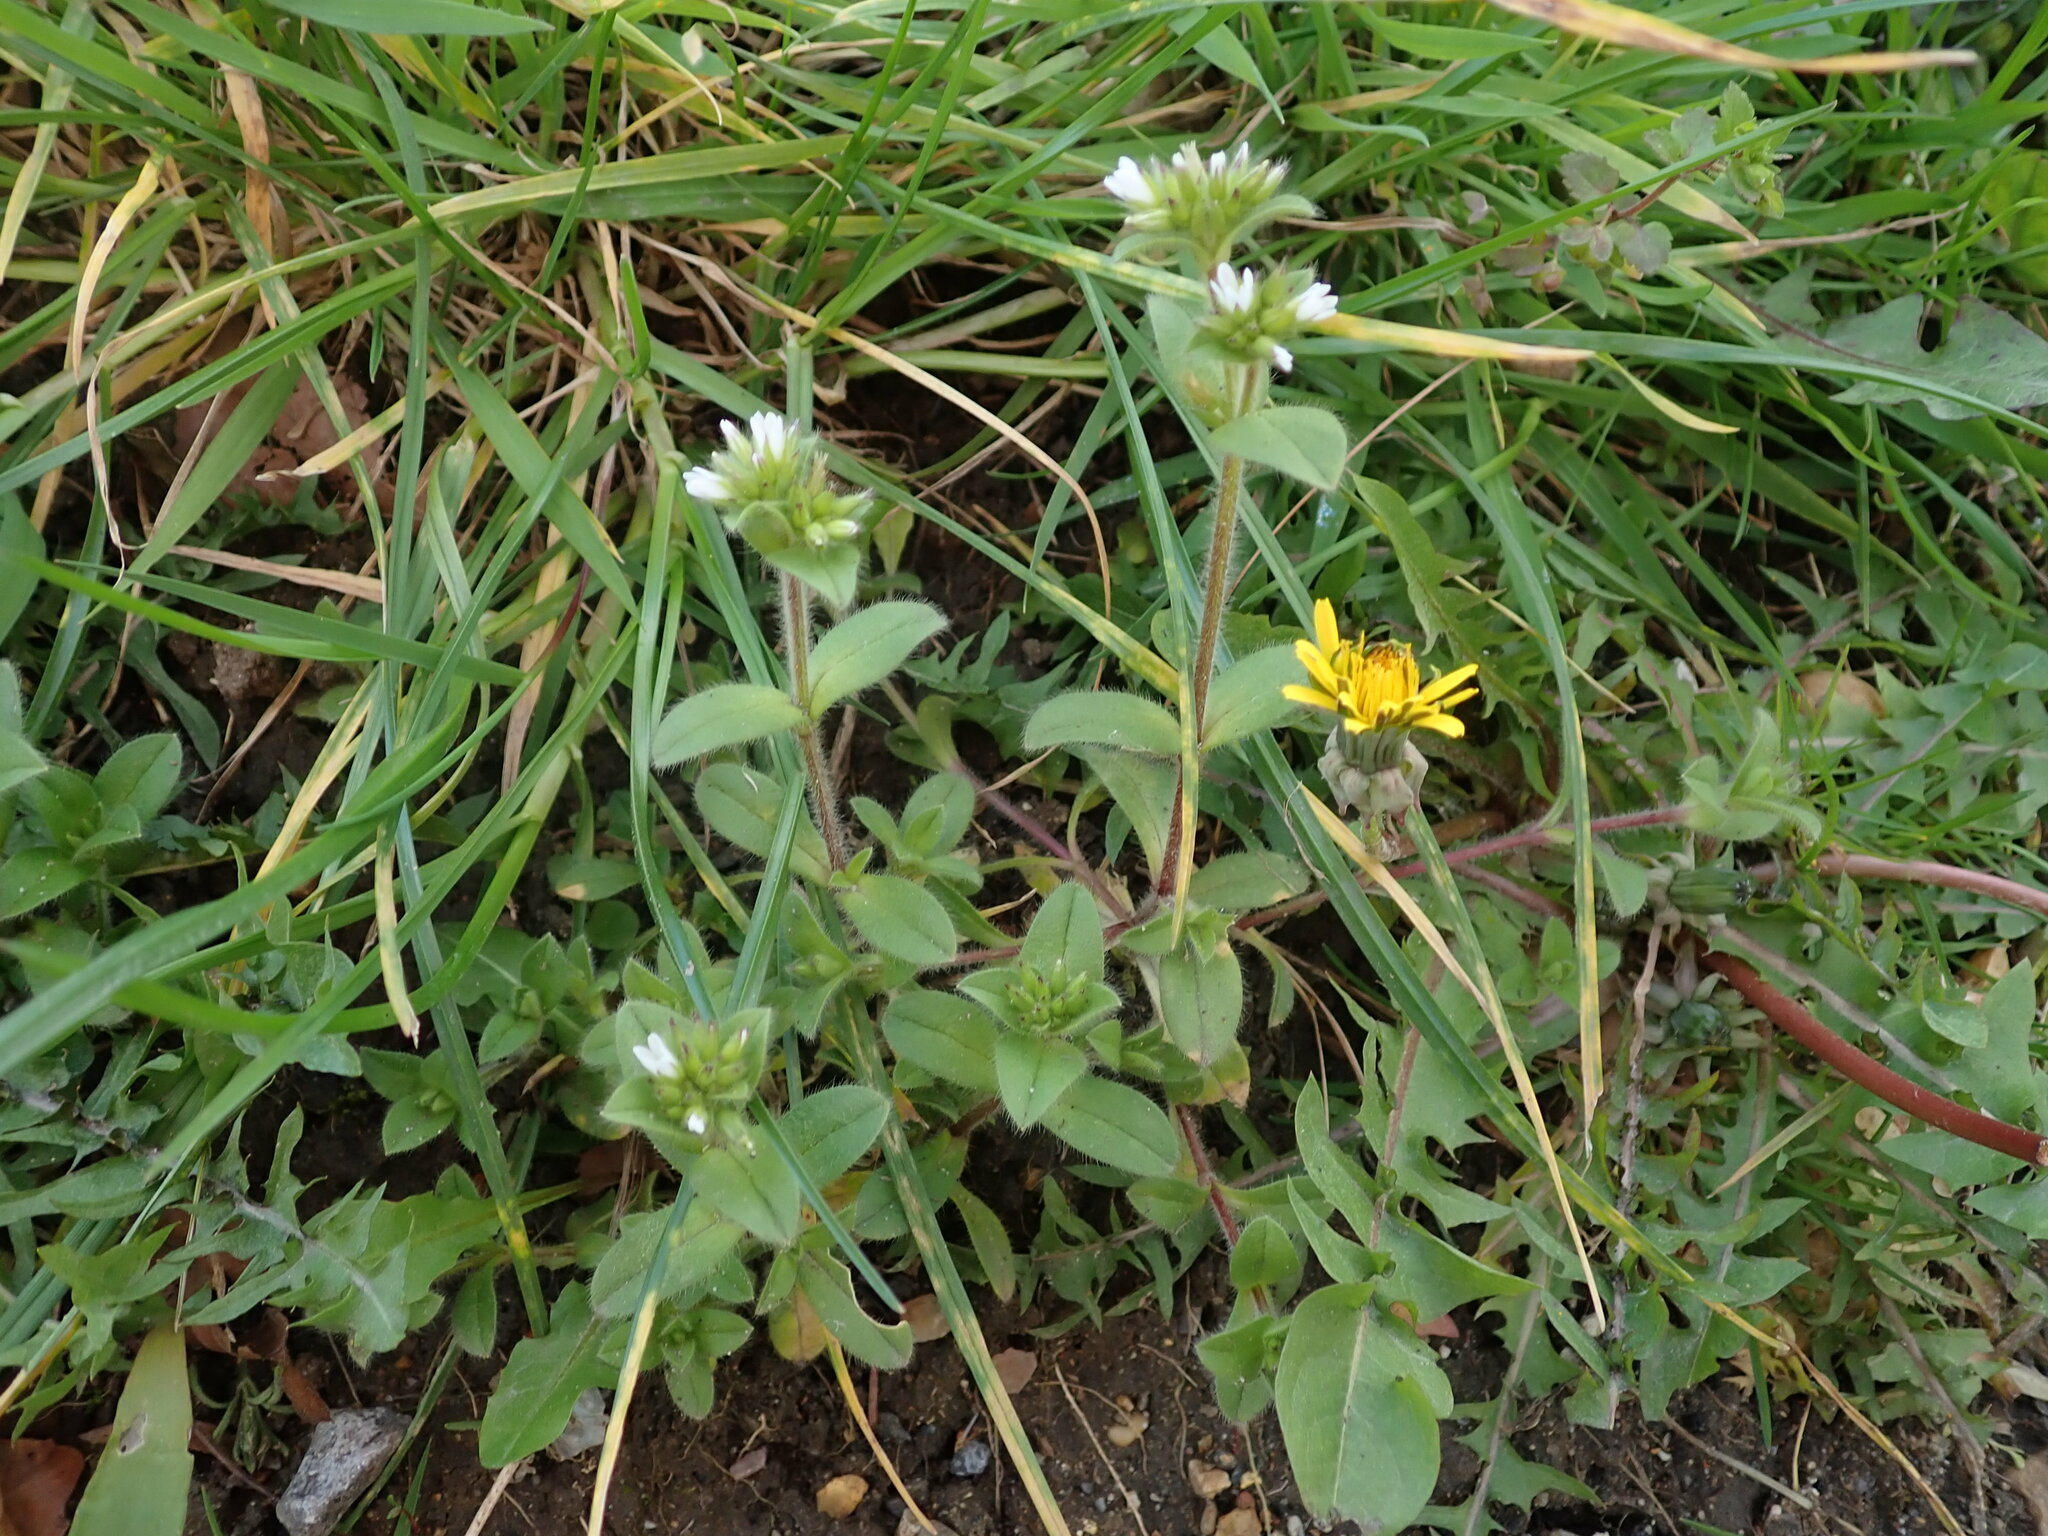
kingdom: Plantae
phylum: Tracheophyta
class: Magnoliopsida
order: Caryophyllales
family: Caryophyllaceae
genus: Cerastium
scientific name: Cerastium glomeratum
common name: Sticky chickweed
